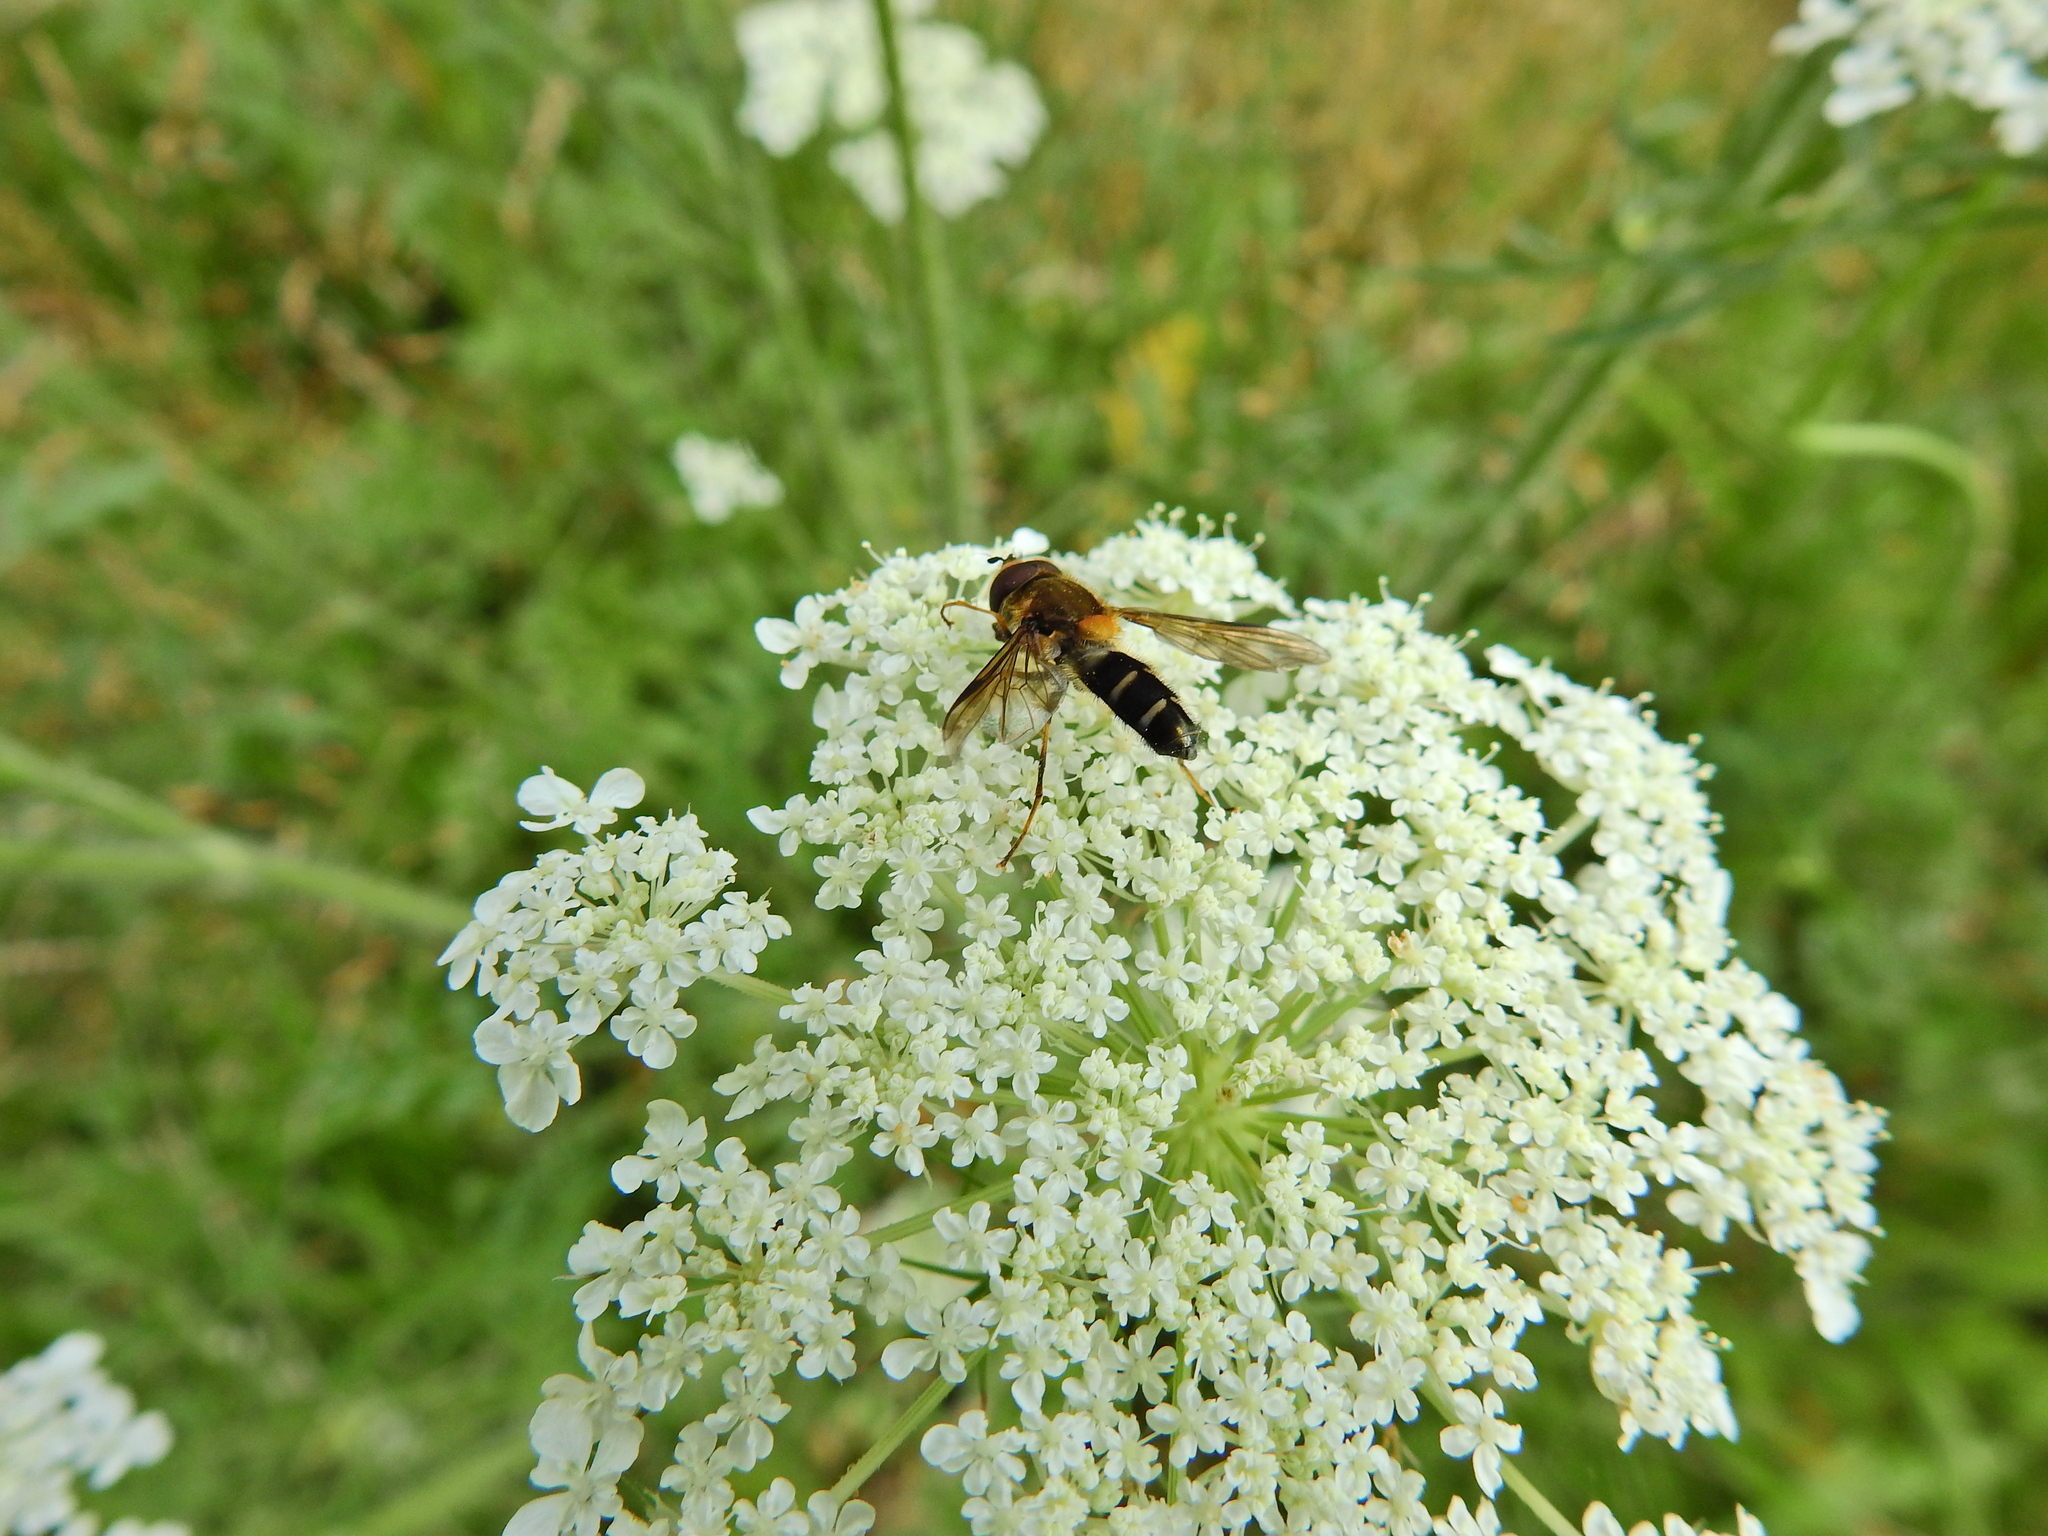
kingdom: Animalia
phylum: Arthropoda
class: Insecta
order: Diptera
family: Syrphidae
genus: Leucozona
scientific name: Leucozona glaucia
